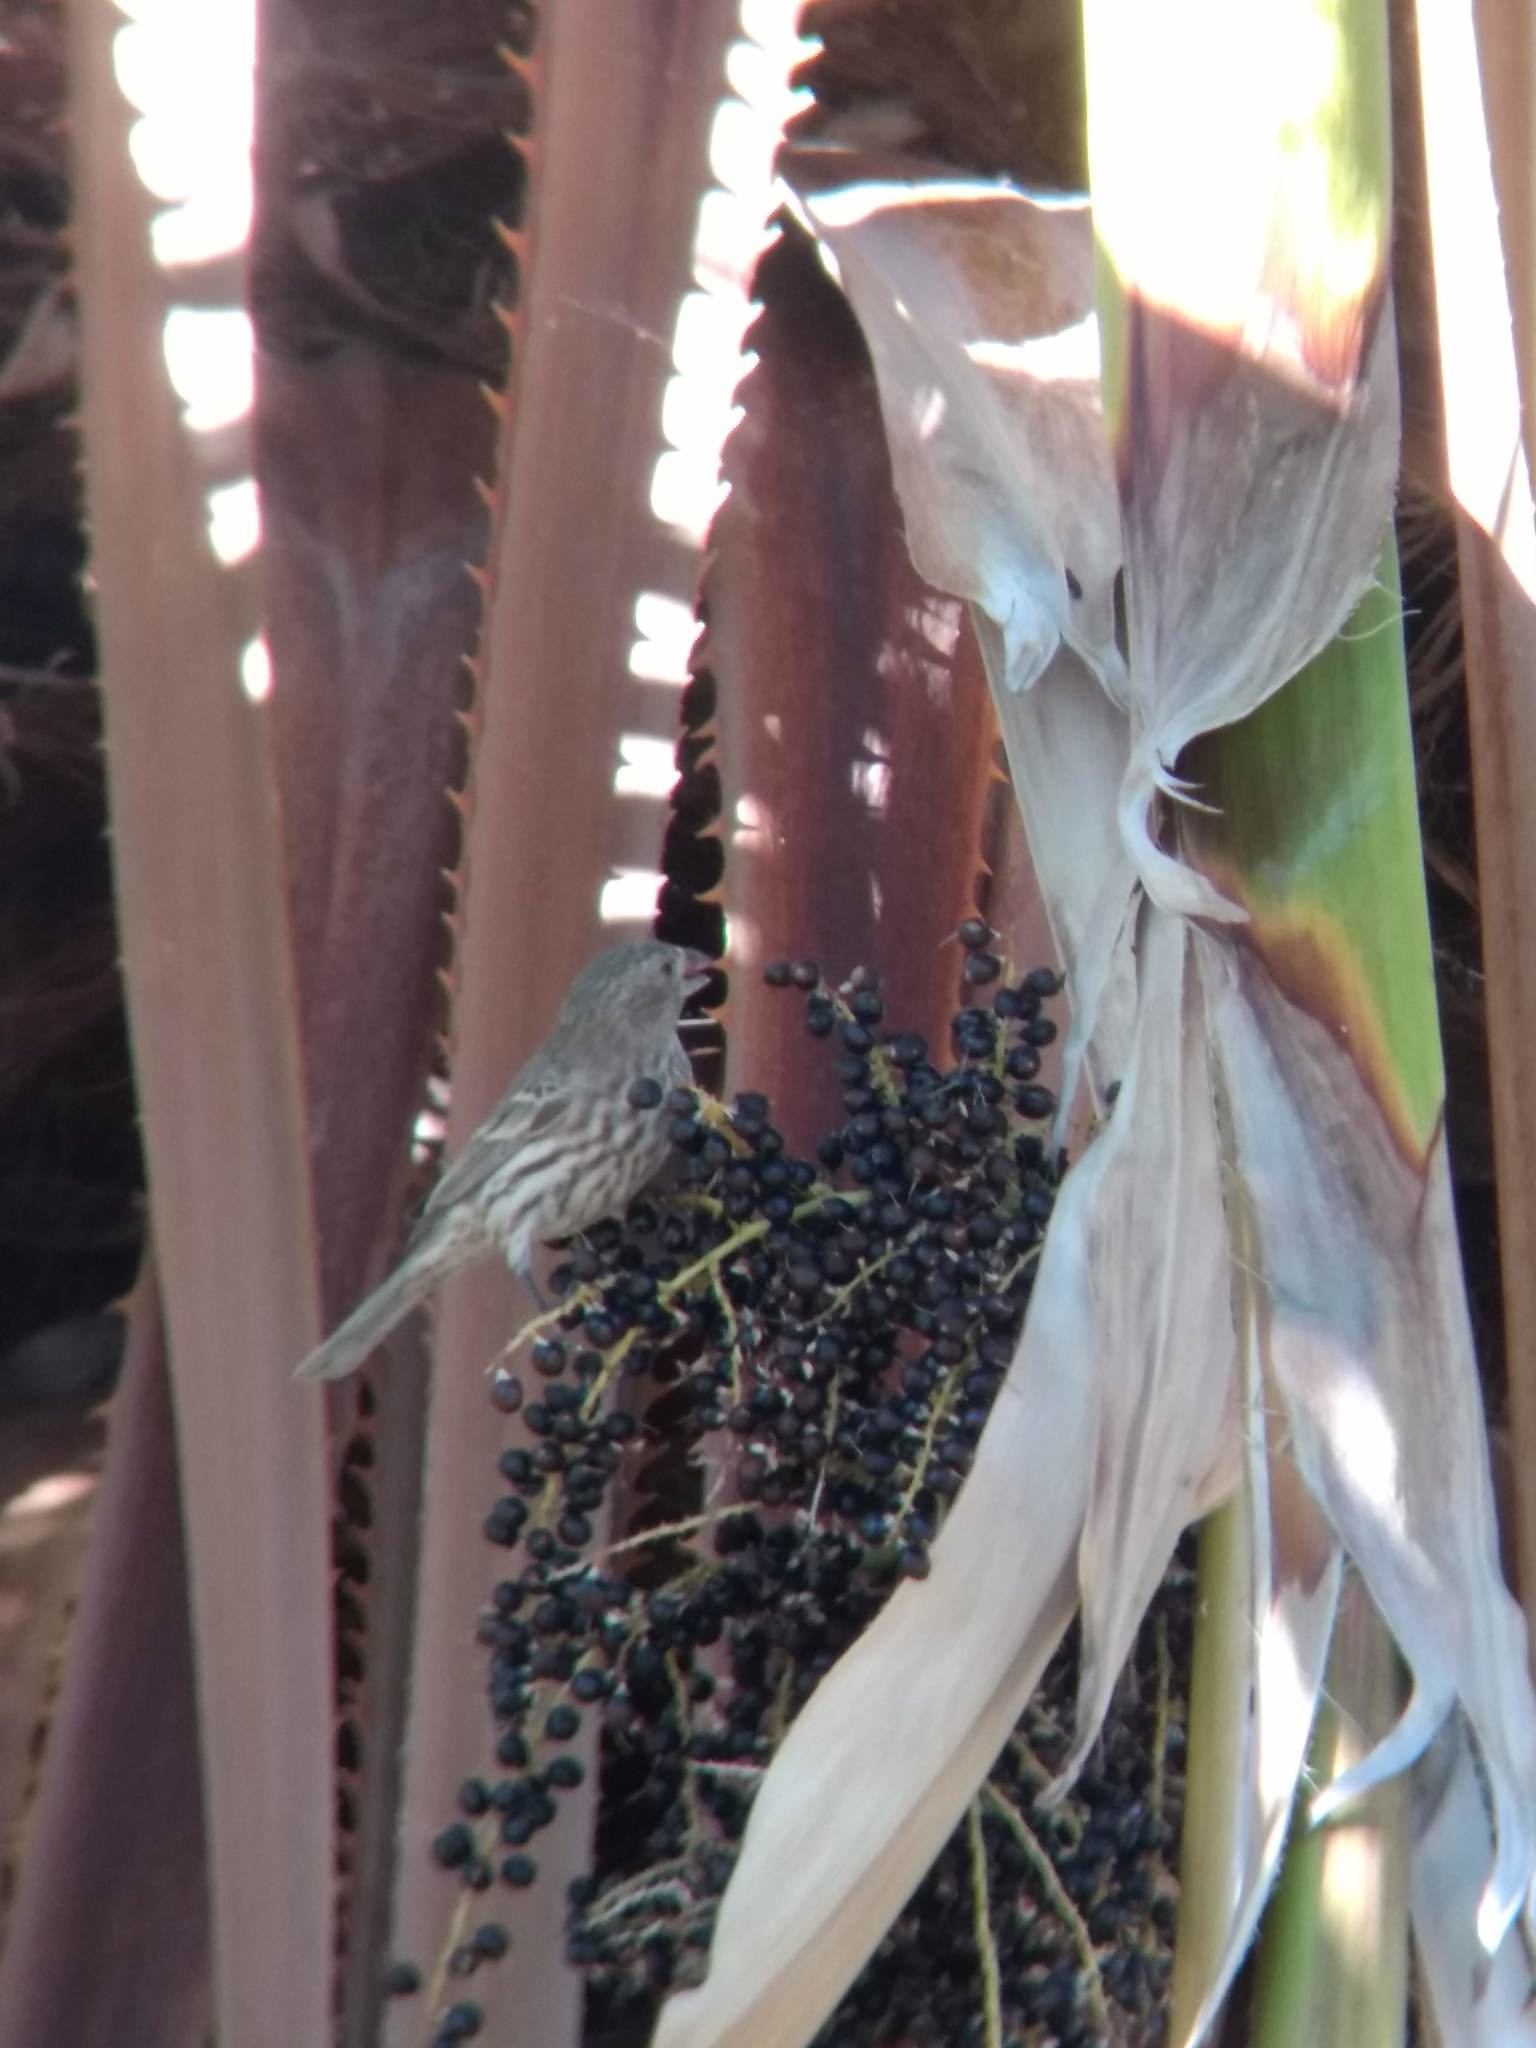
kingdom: Animalia
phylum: Chordata
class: Aves
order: Passeriformes
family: Fringillidae
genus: Haemorhous
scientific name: Haemorhous mexicanus
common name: House finch
